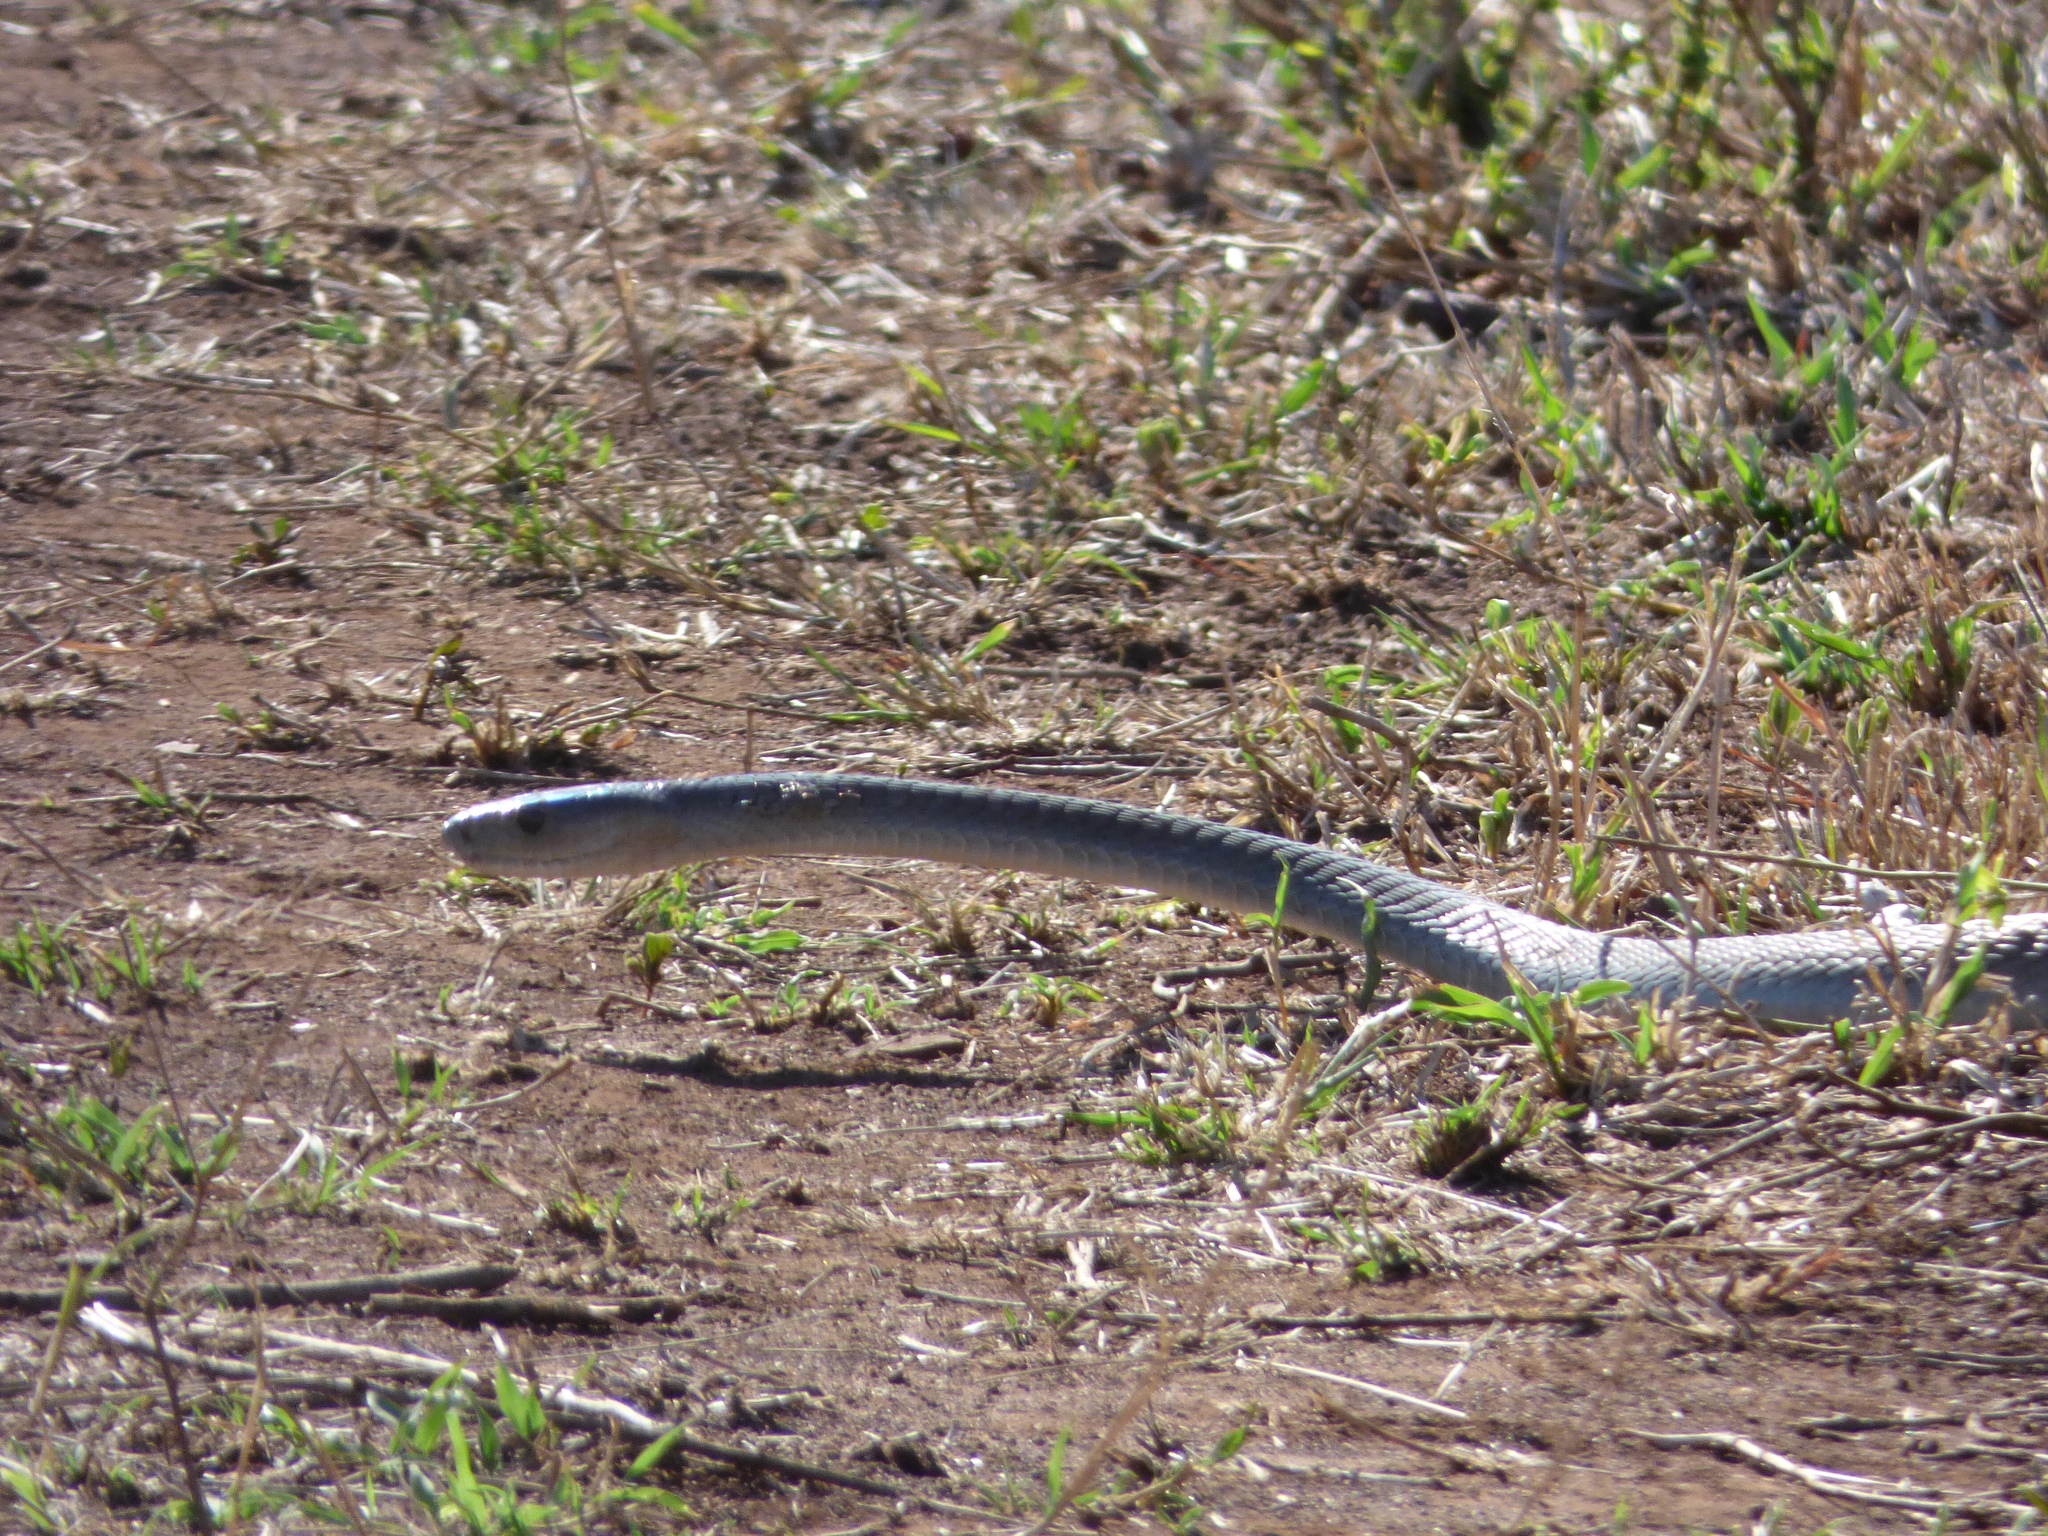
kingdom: Animalia
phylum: Chordata
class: Squamata
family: Elapidae
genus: Dendroaspis
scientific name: Dendroaspis polylepis
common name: Black mamba
